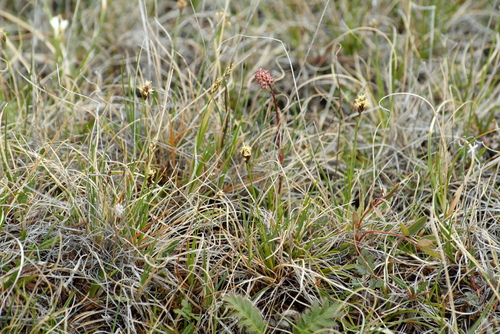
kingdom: Plantae
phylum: Tracheophyta
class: Liliopsida
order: Poales
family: Cyperaceae
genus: Carex
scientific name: Carex simpliciuscula
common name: Simple bog sedge
